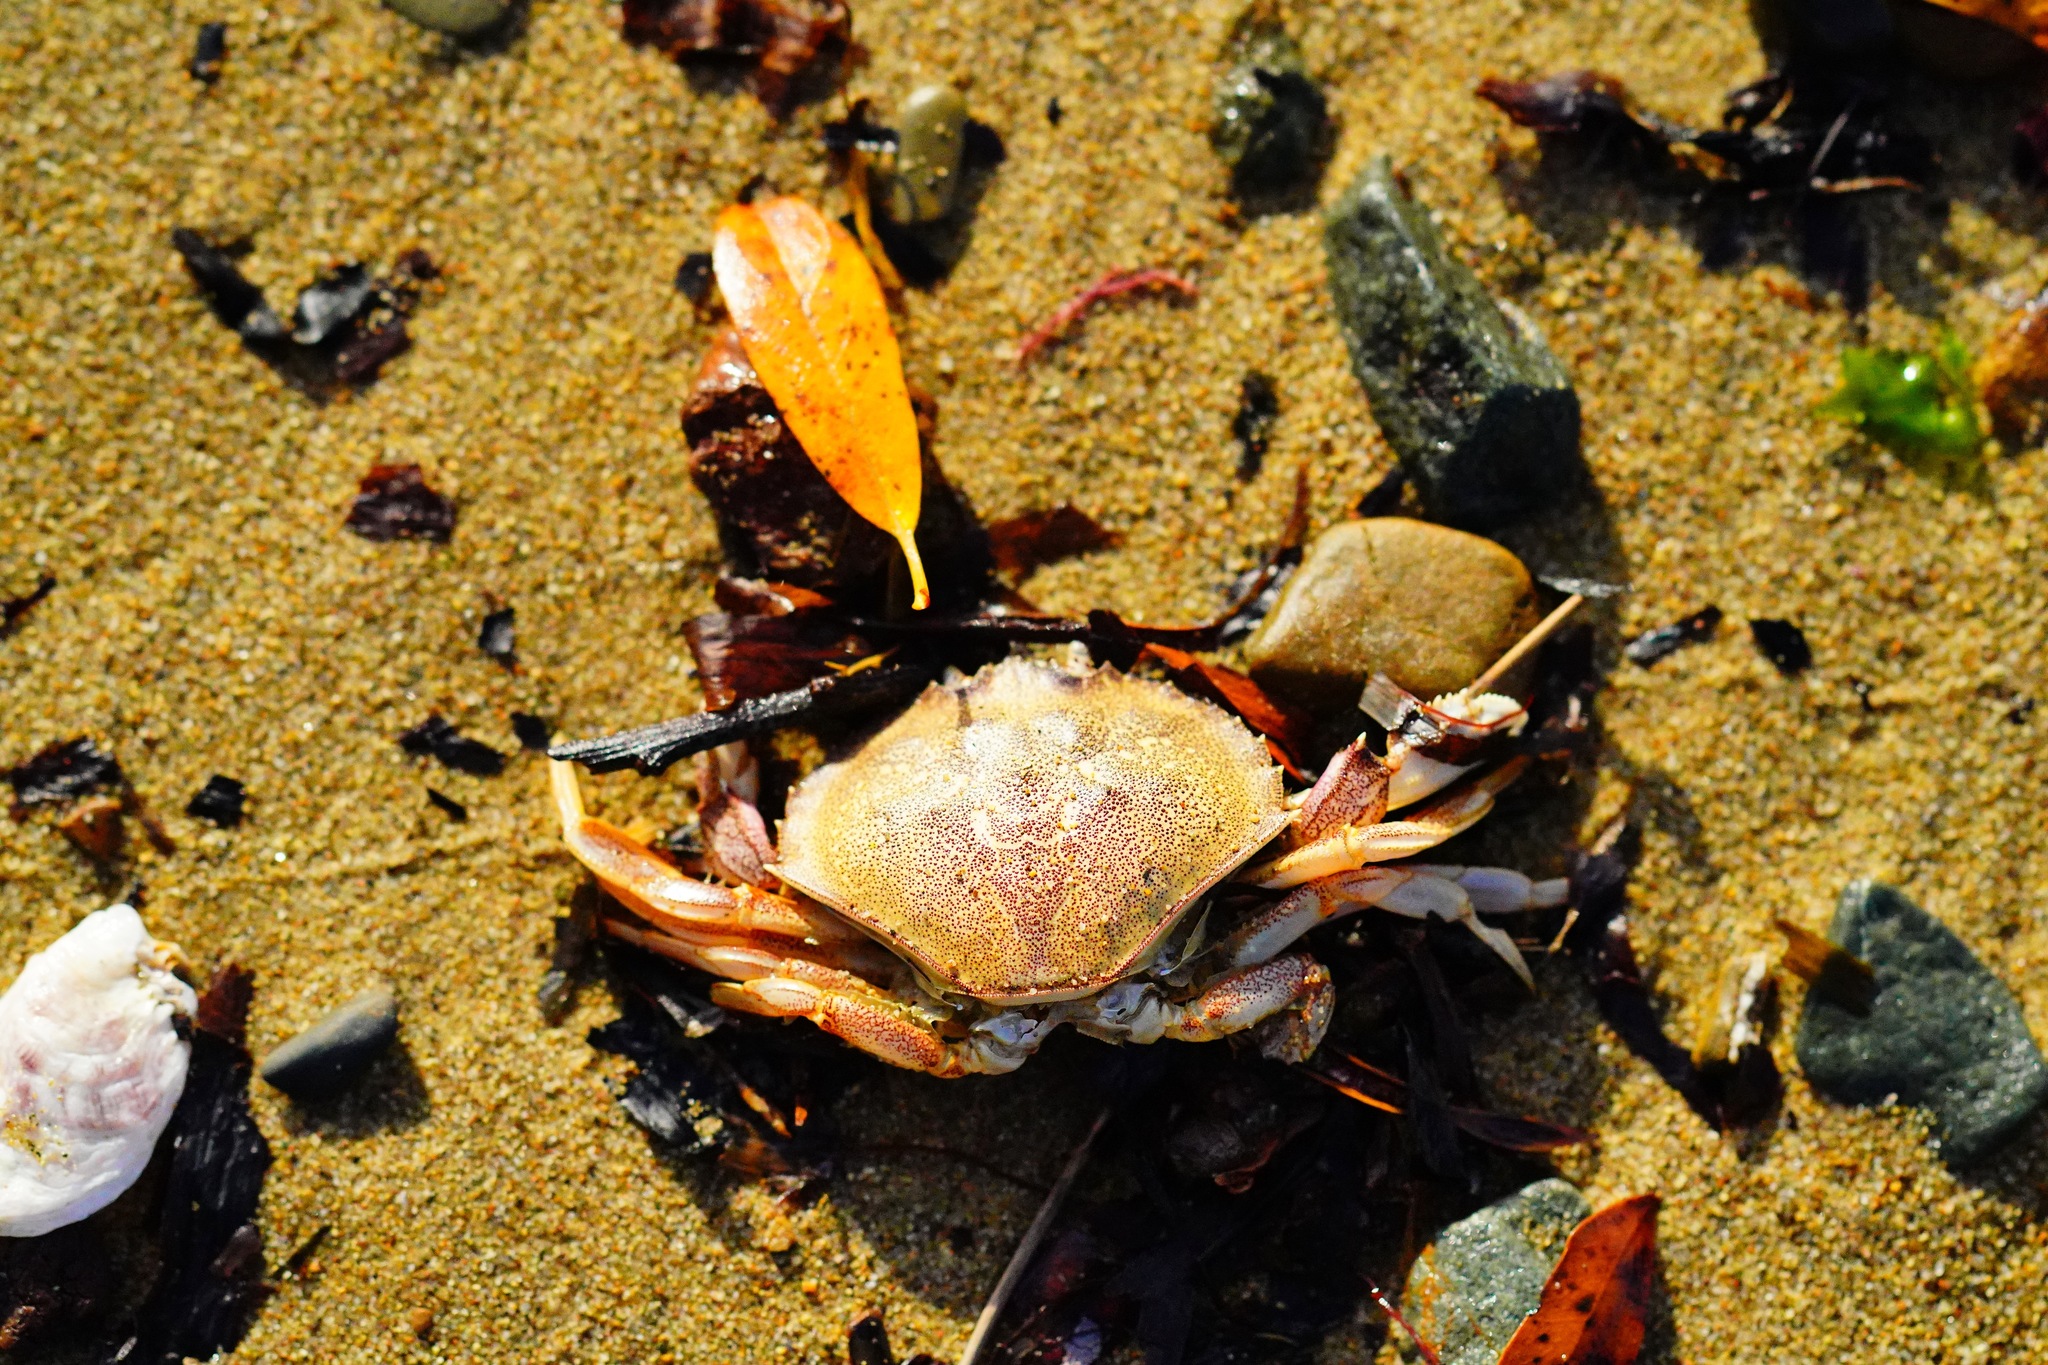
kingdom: Animalia
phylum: Arthropoda
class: Malacostraca
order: Decapoda
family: Cancridae
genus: Metacarcinus
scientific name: Metacarcinus magister
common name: Californian crab
